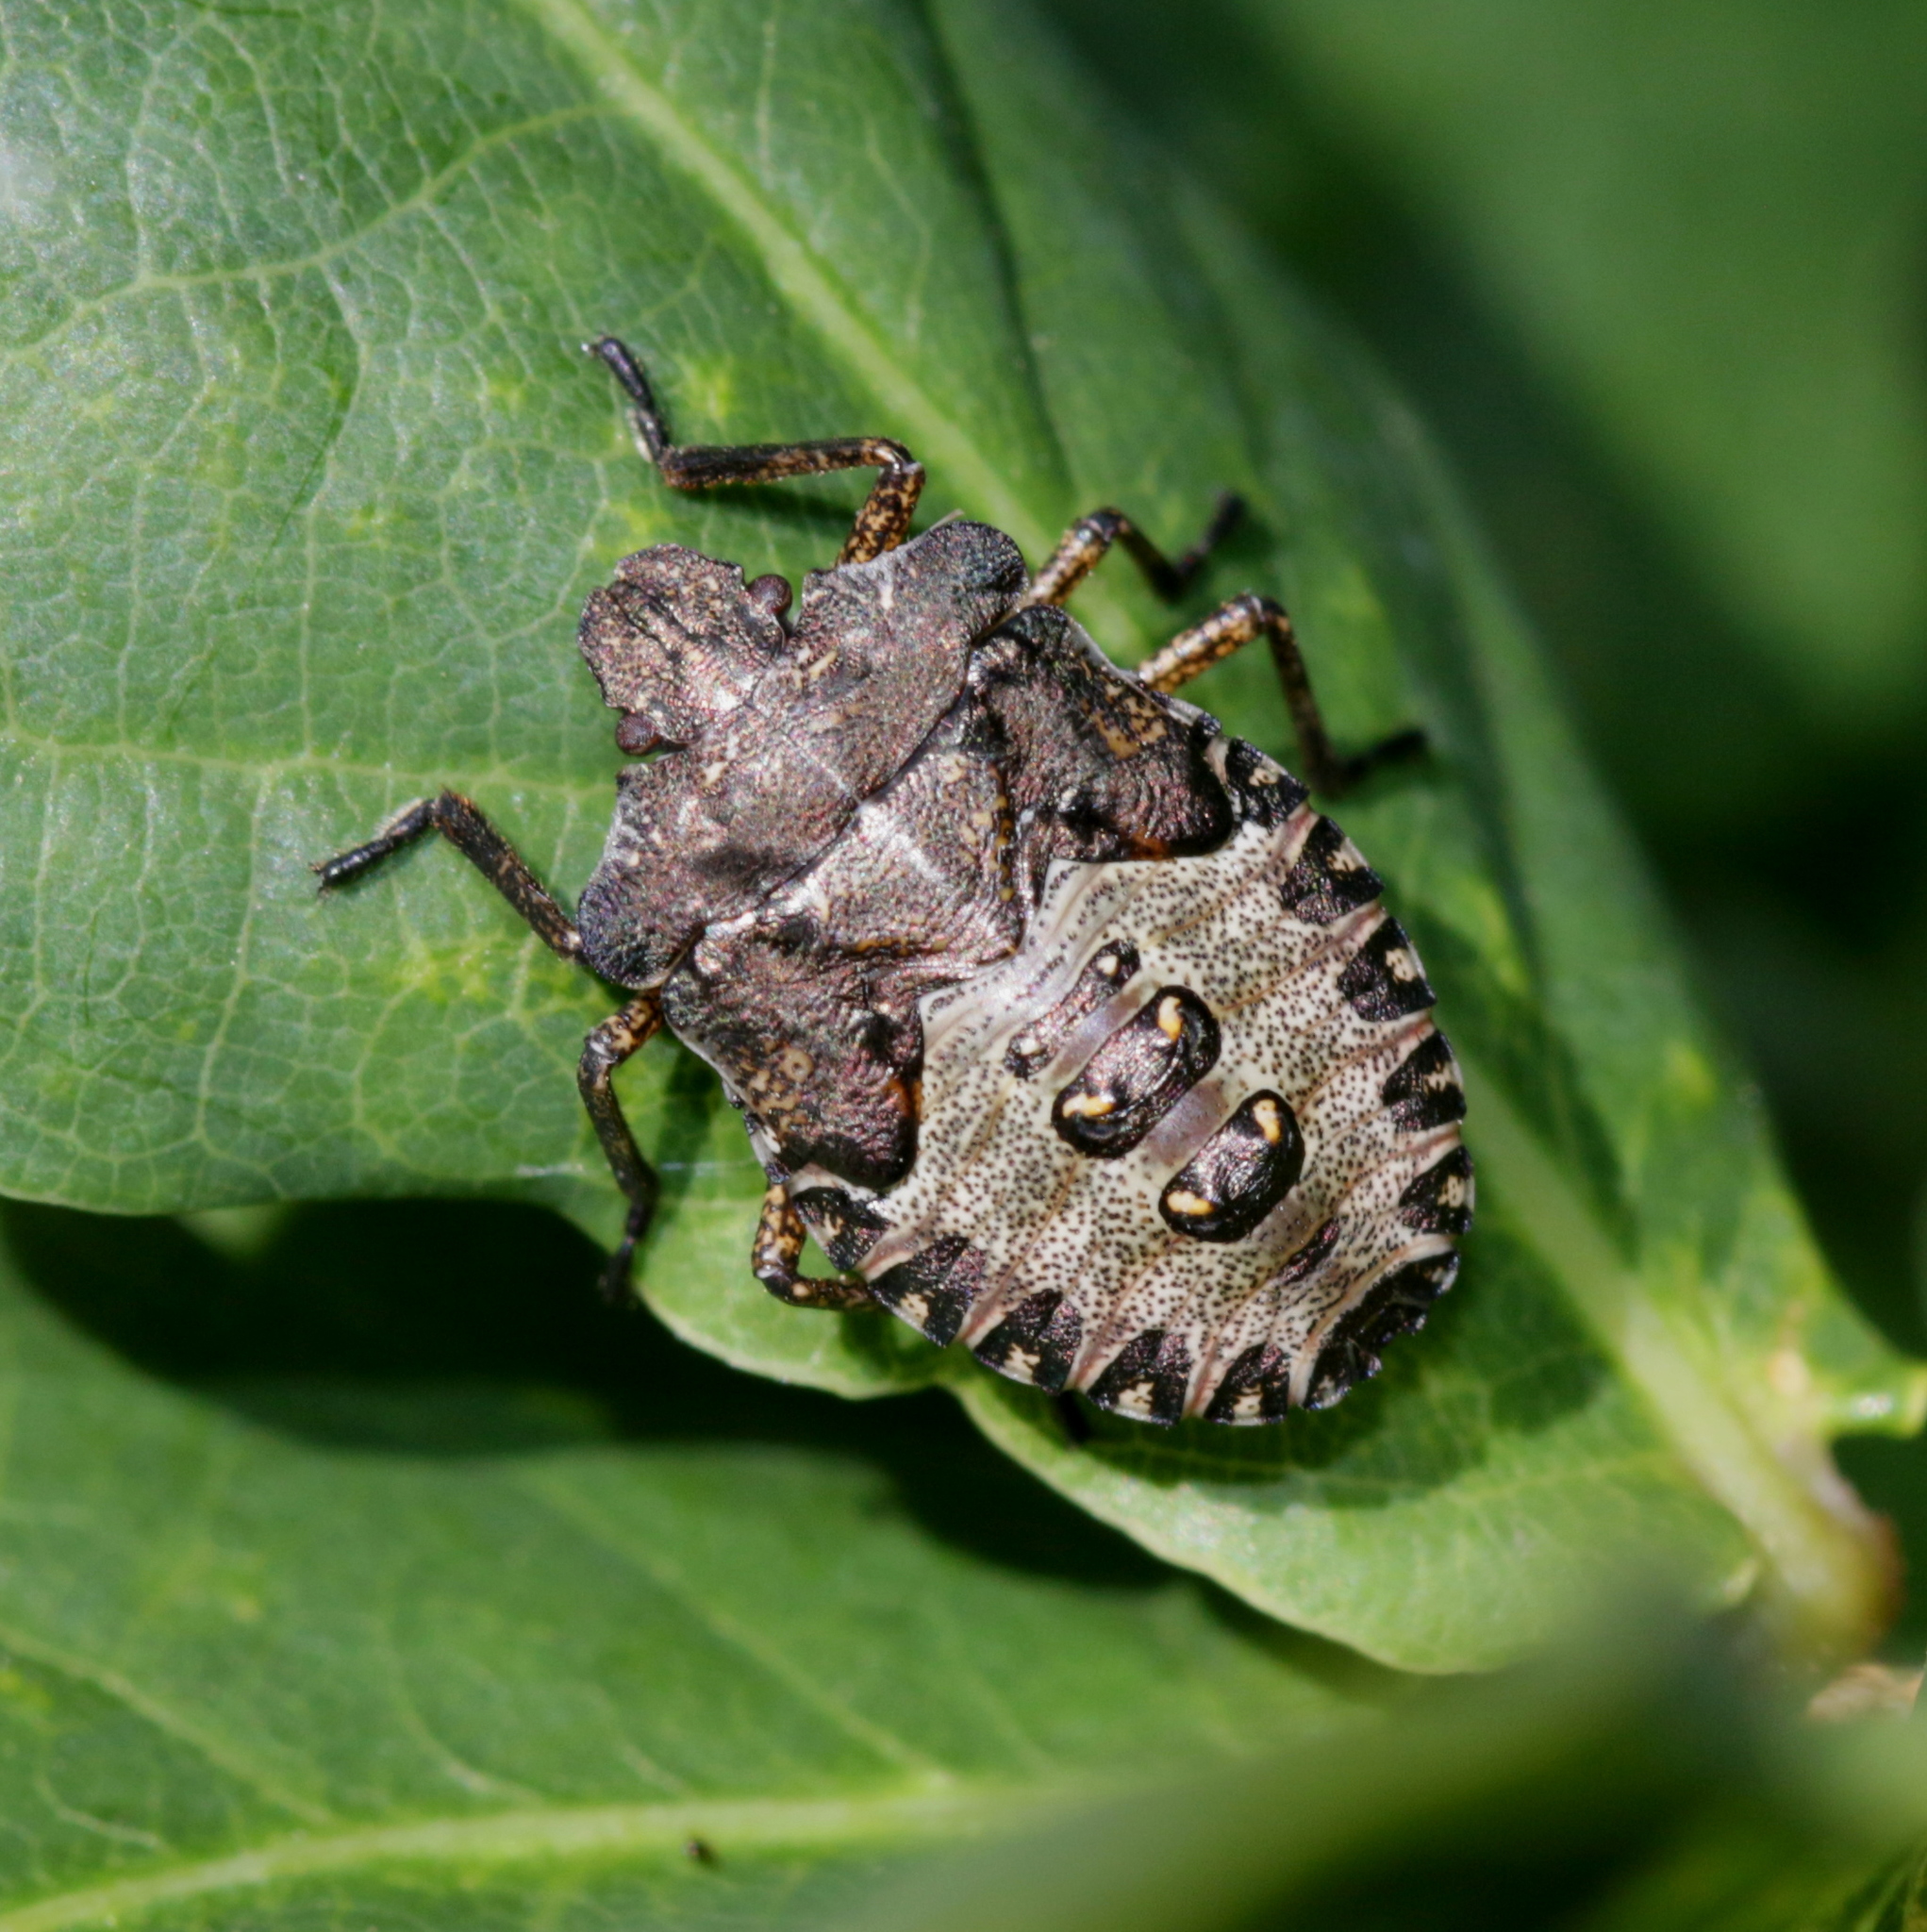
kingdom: Animalia
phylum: Arthropoda
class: Insecta
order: Hemiptera
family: Pentatomidae
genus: Pentatoma
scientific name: Pentatoma rufipes
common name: Forest bug
